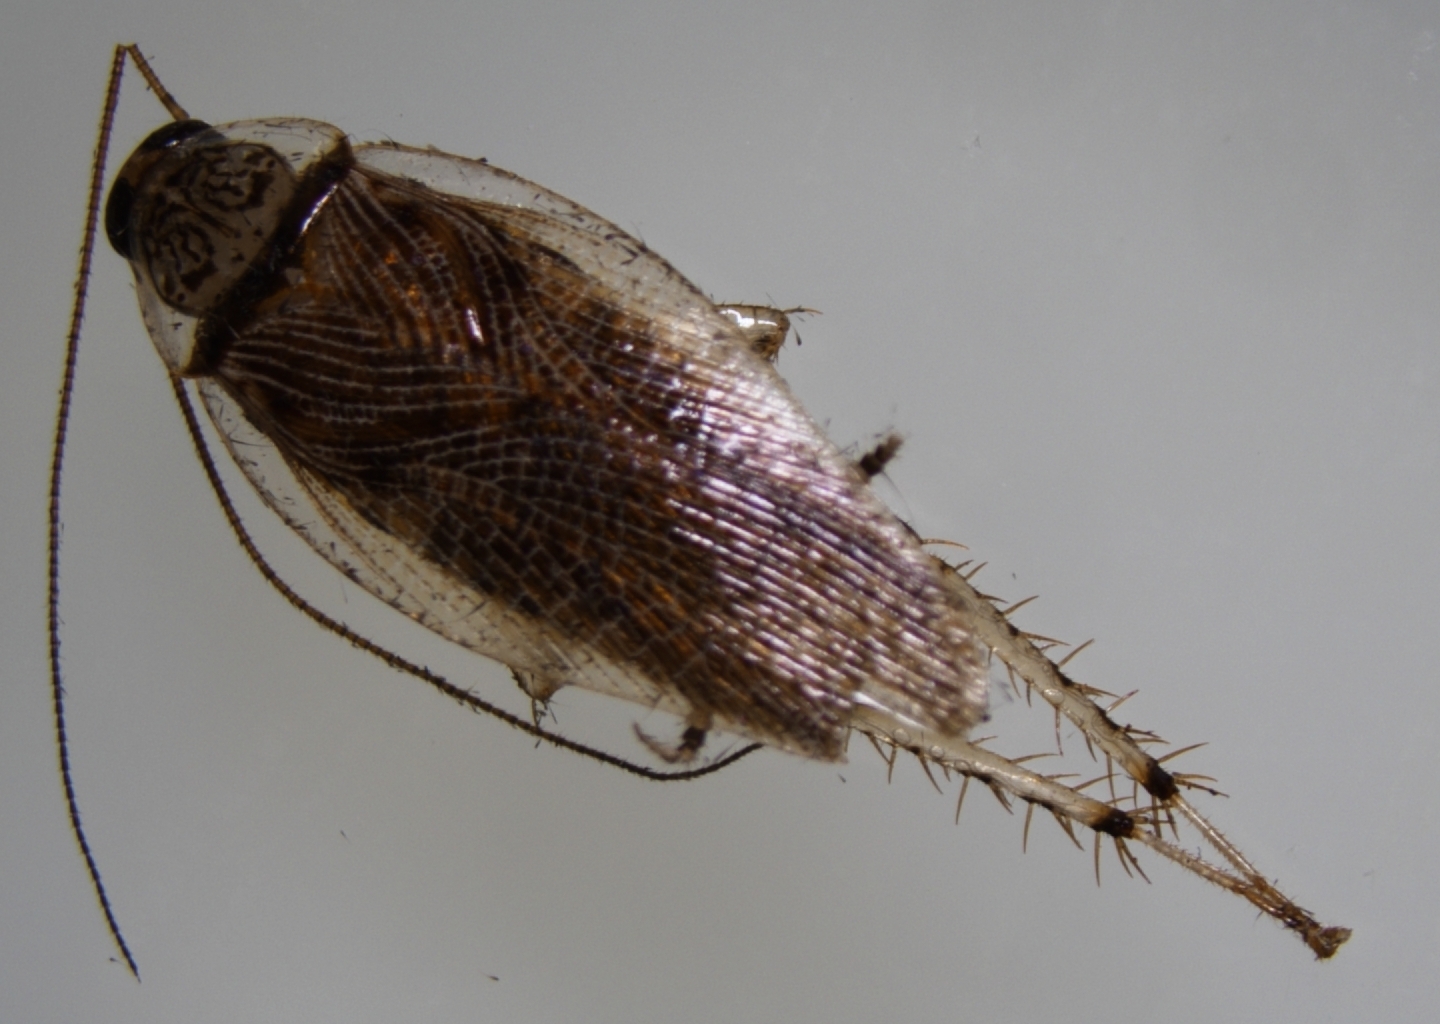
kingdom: Animalia
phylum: Arthropoda
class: Insecta
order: Blattodea
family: Ectobiidae
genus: Balta
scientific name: Balta notulata
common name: Cockroach
